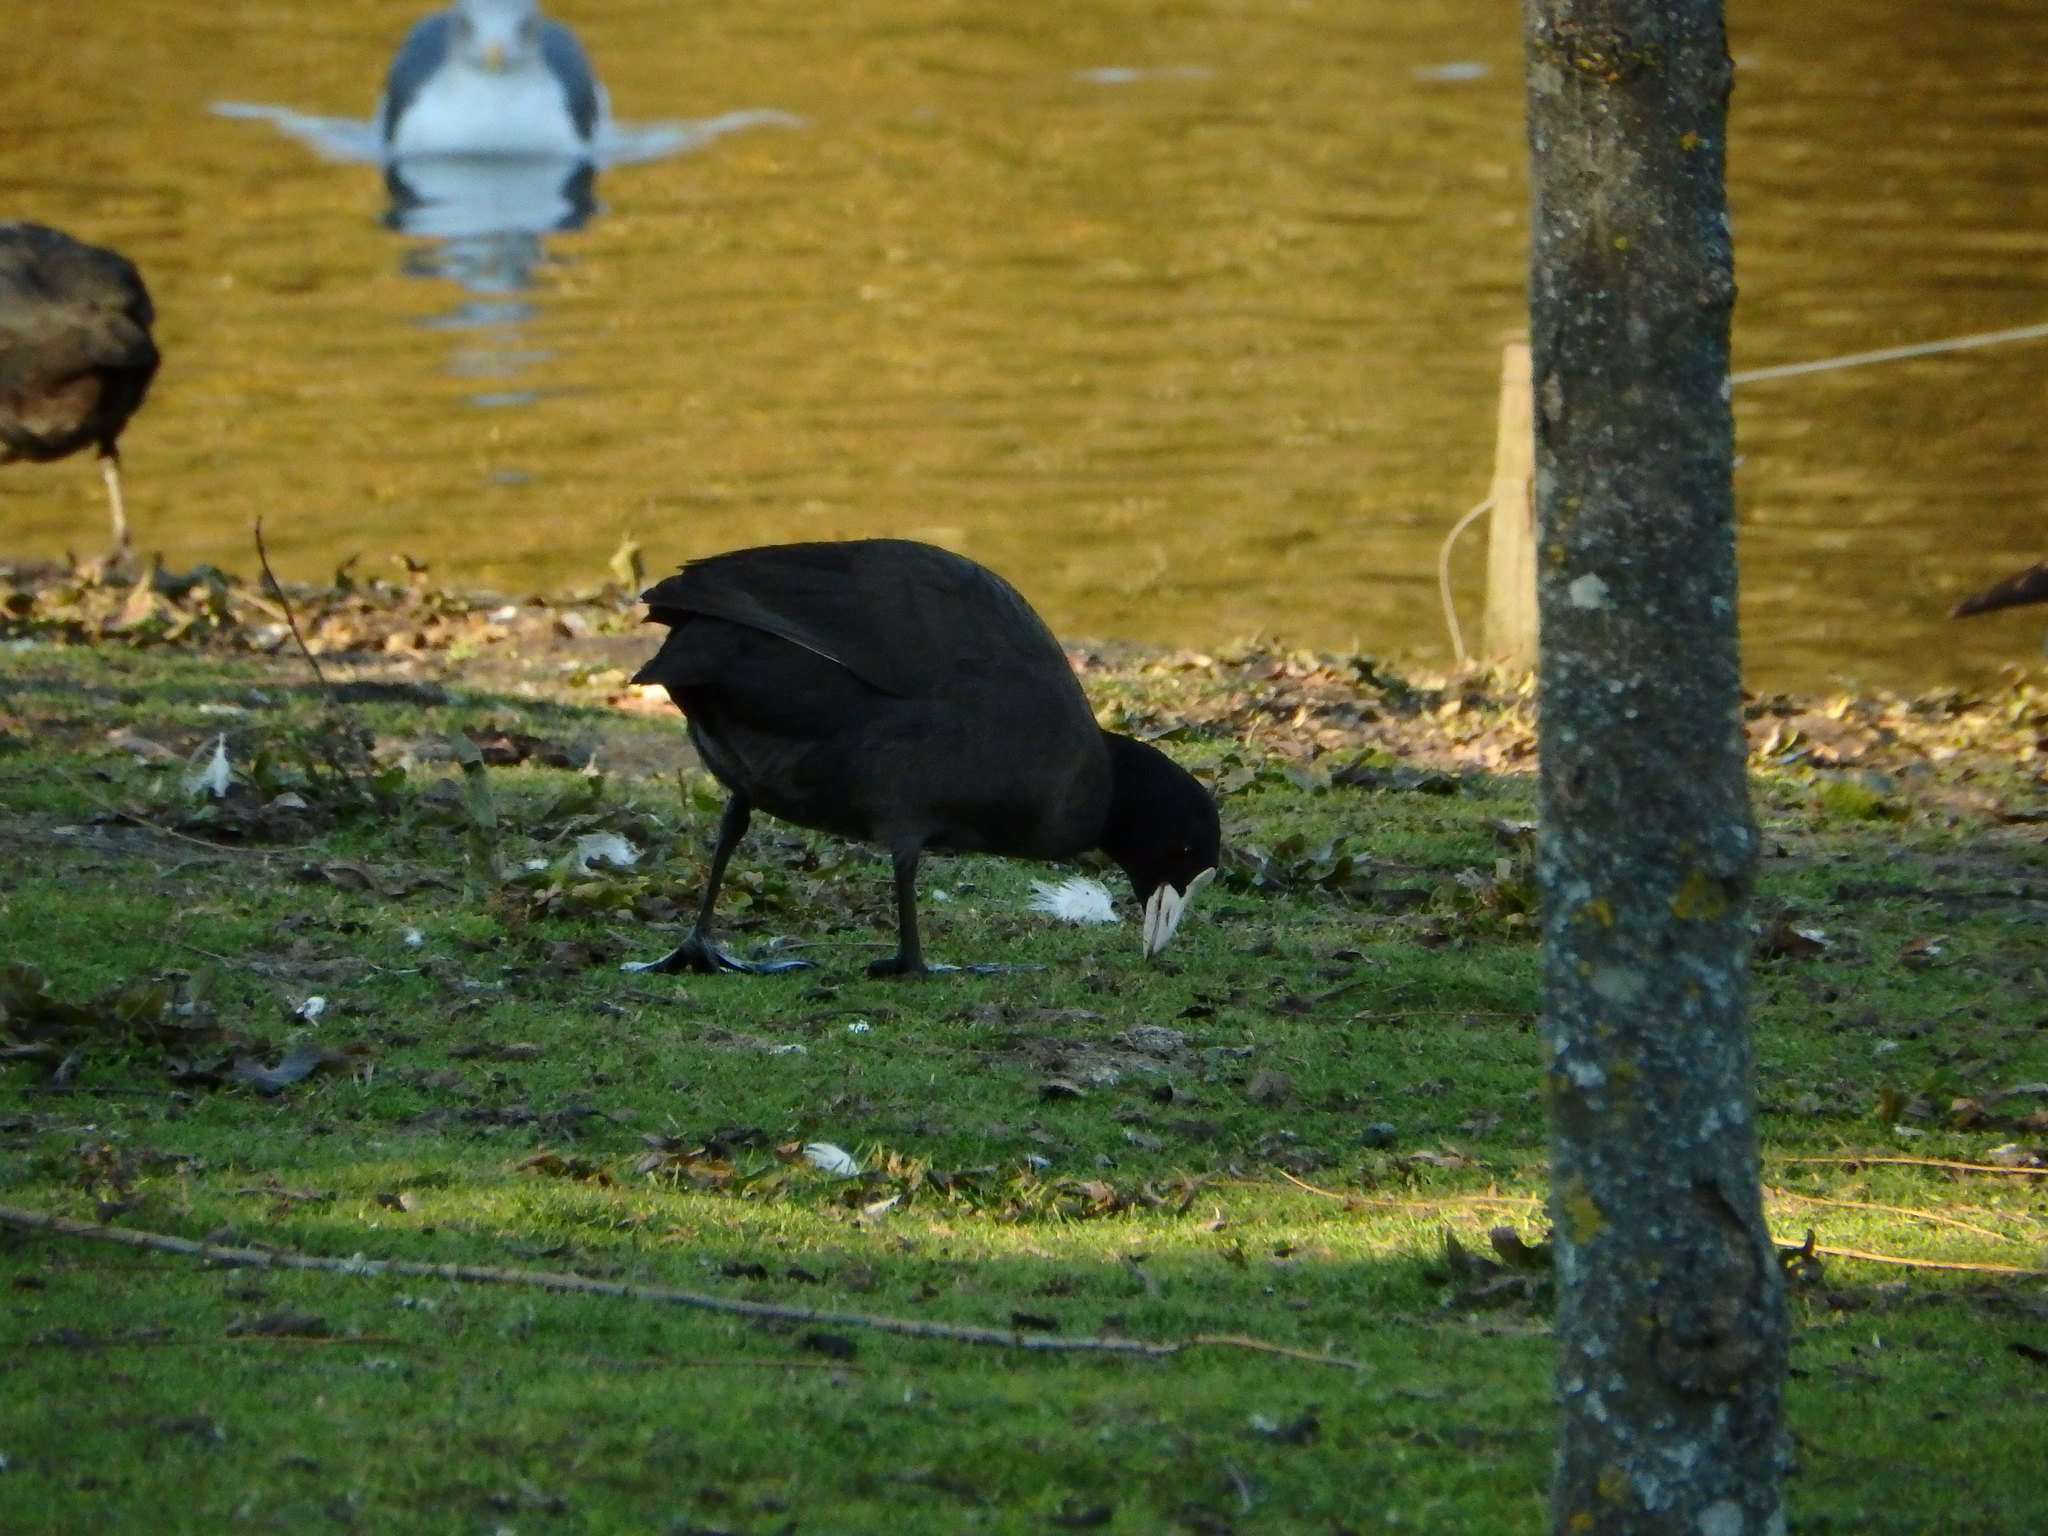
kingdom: Animalia
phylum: Chordata
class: Aves
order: Gruiformes
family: Rallidae
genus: Fulica
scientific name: Fulica atra
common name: Eurasian coot
